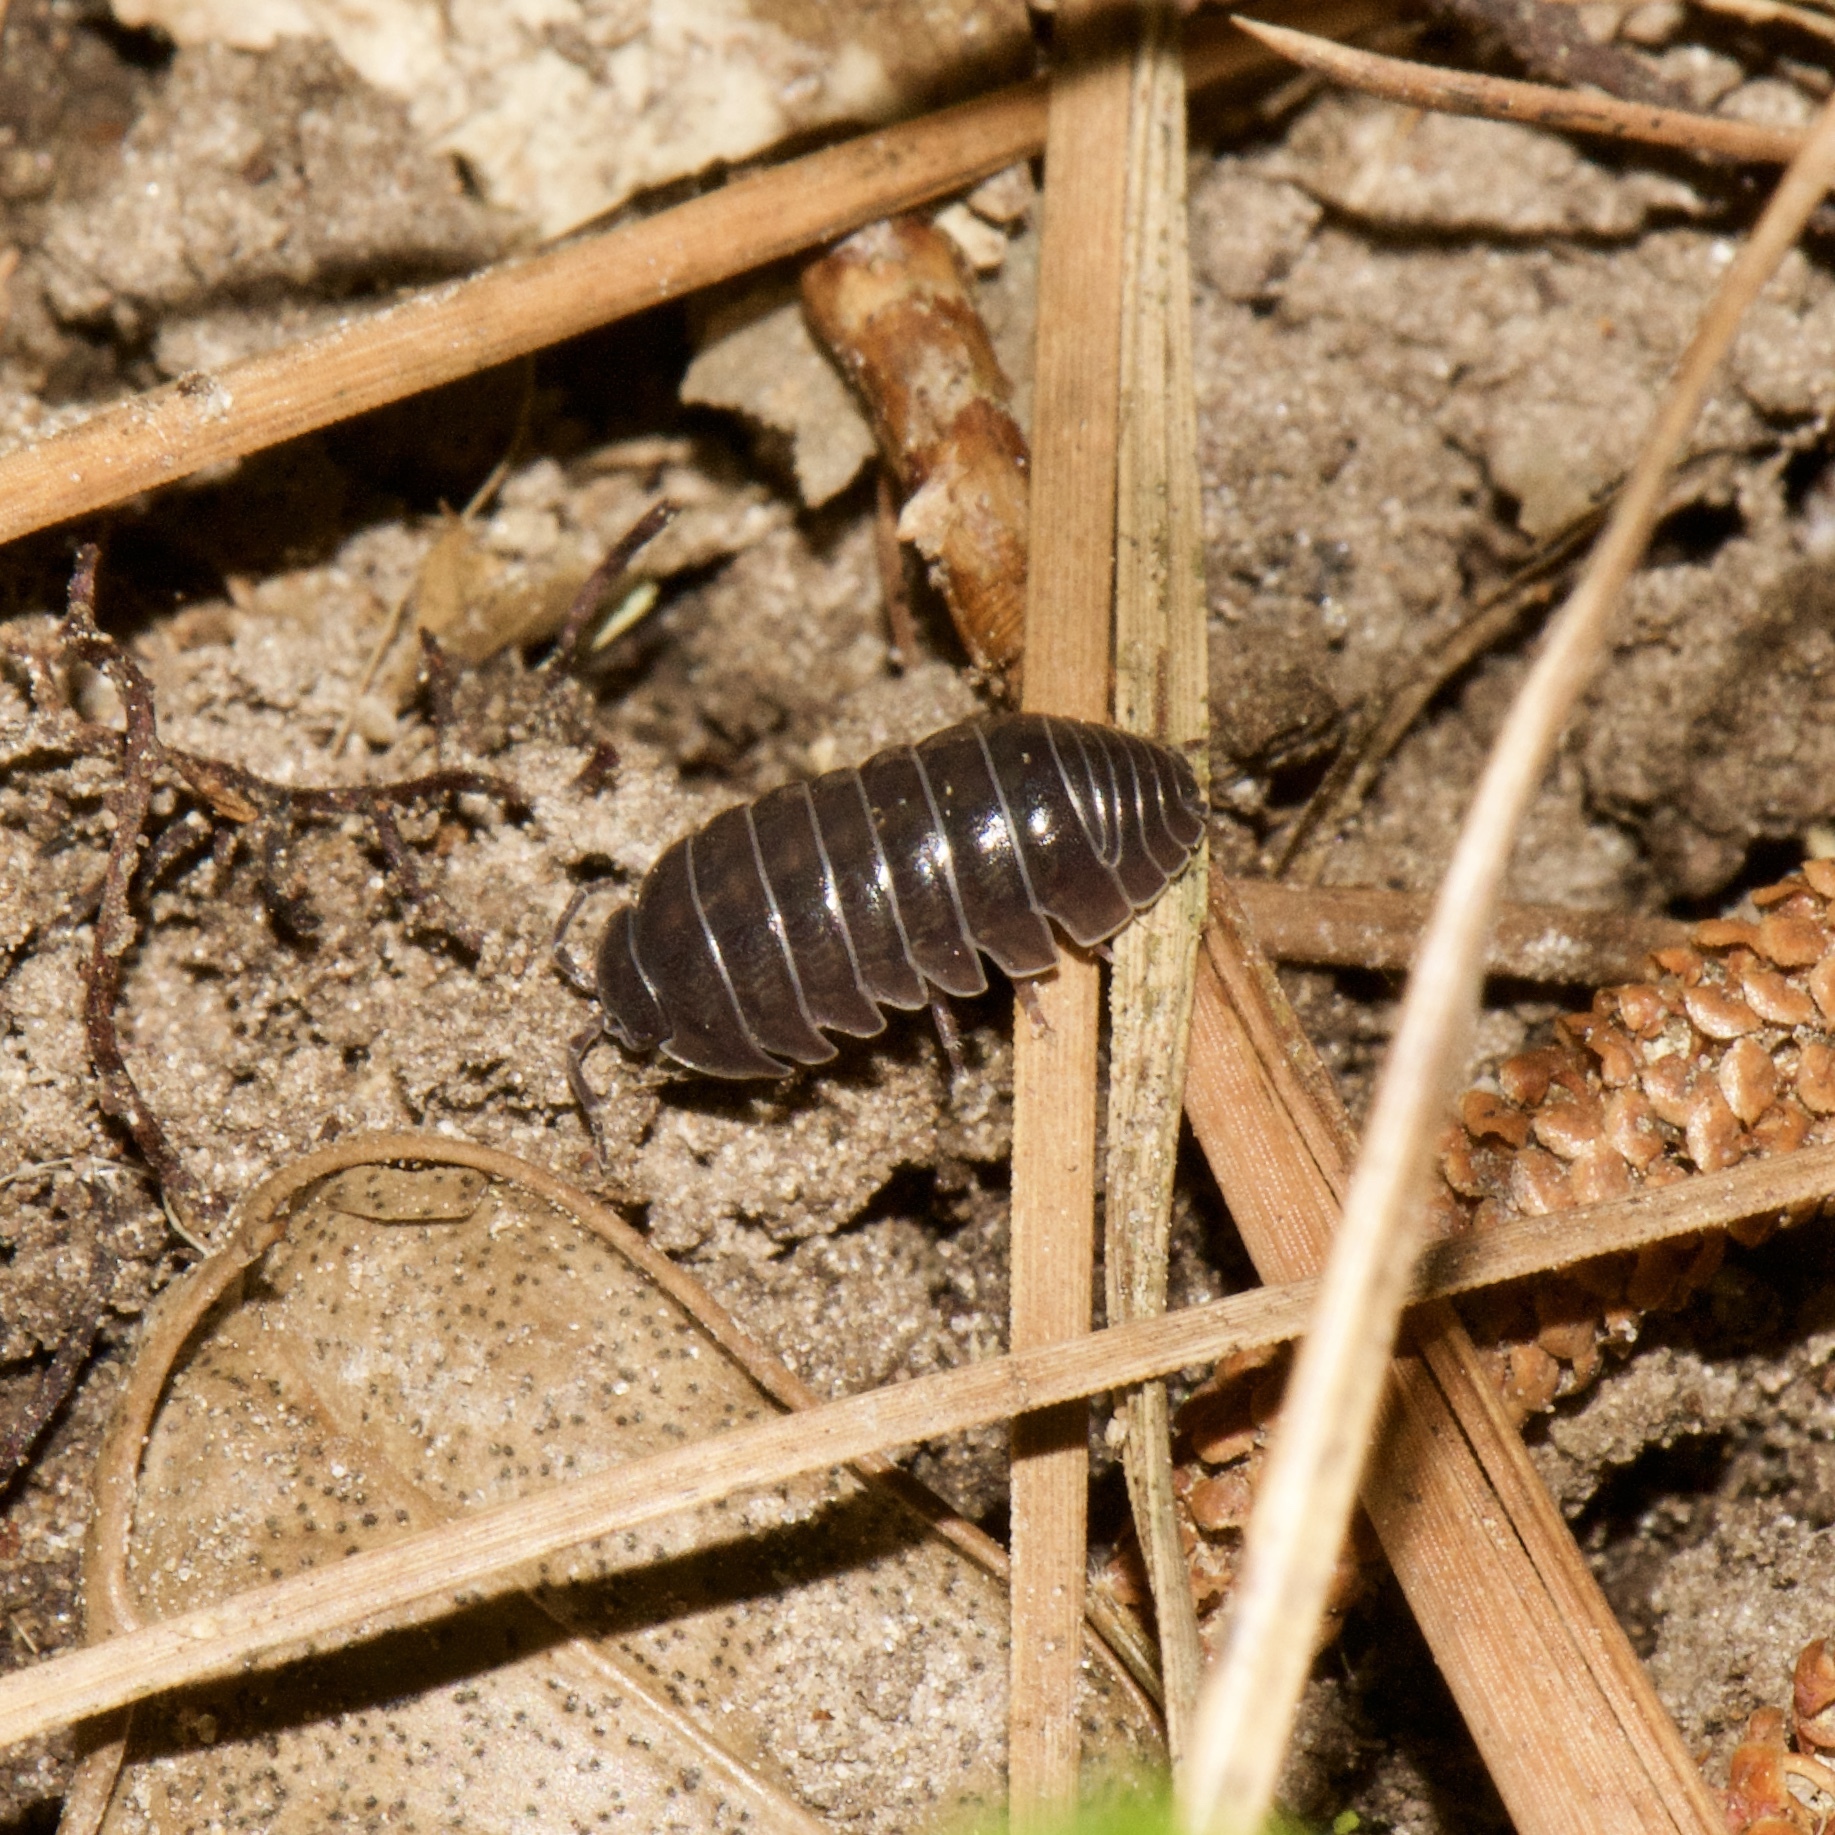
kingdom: Animalia
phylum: Arthropoda
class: Malacostraca
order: Isopoda
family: Armadillidiidae
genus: Armadillidium
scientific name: Armadillidium vulgare
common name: Common pill woodlouse
